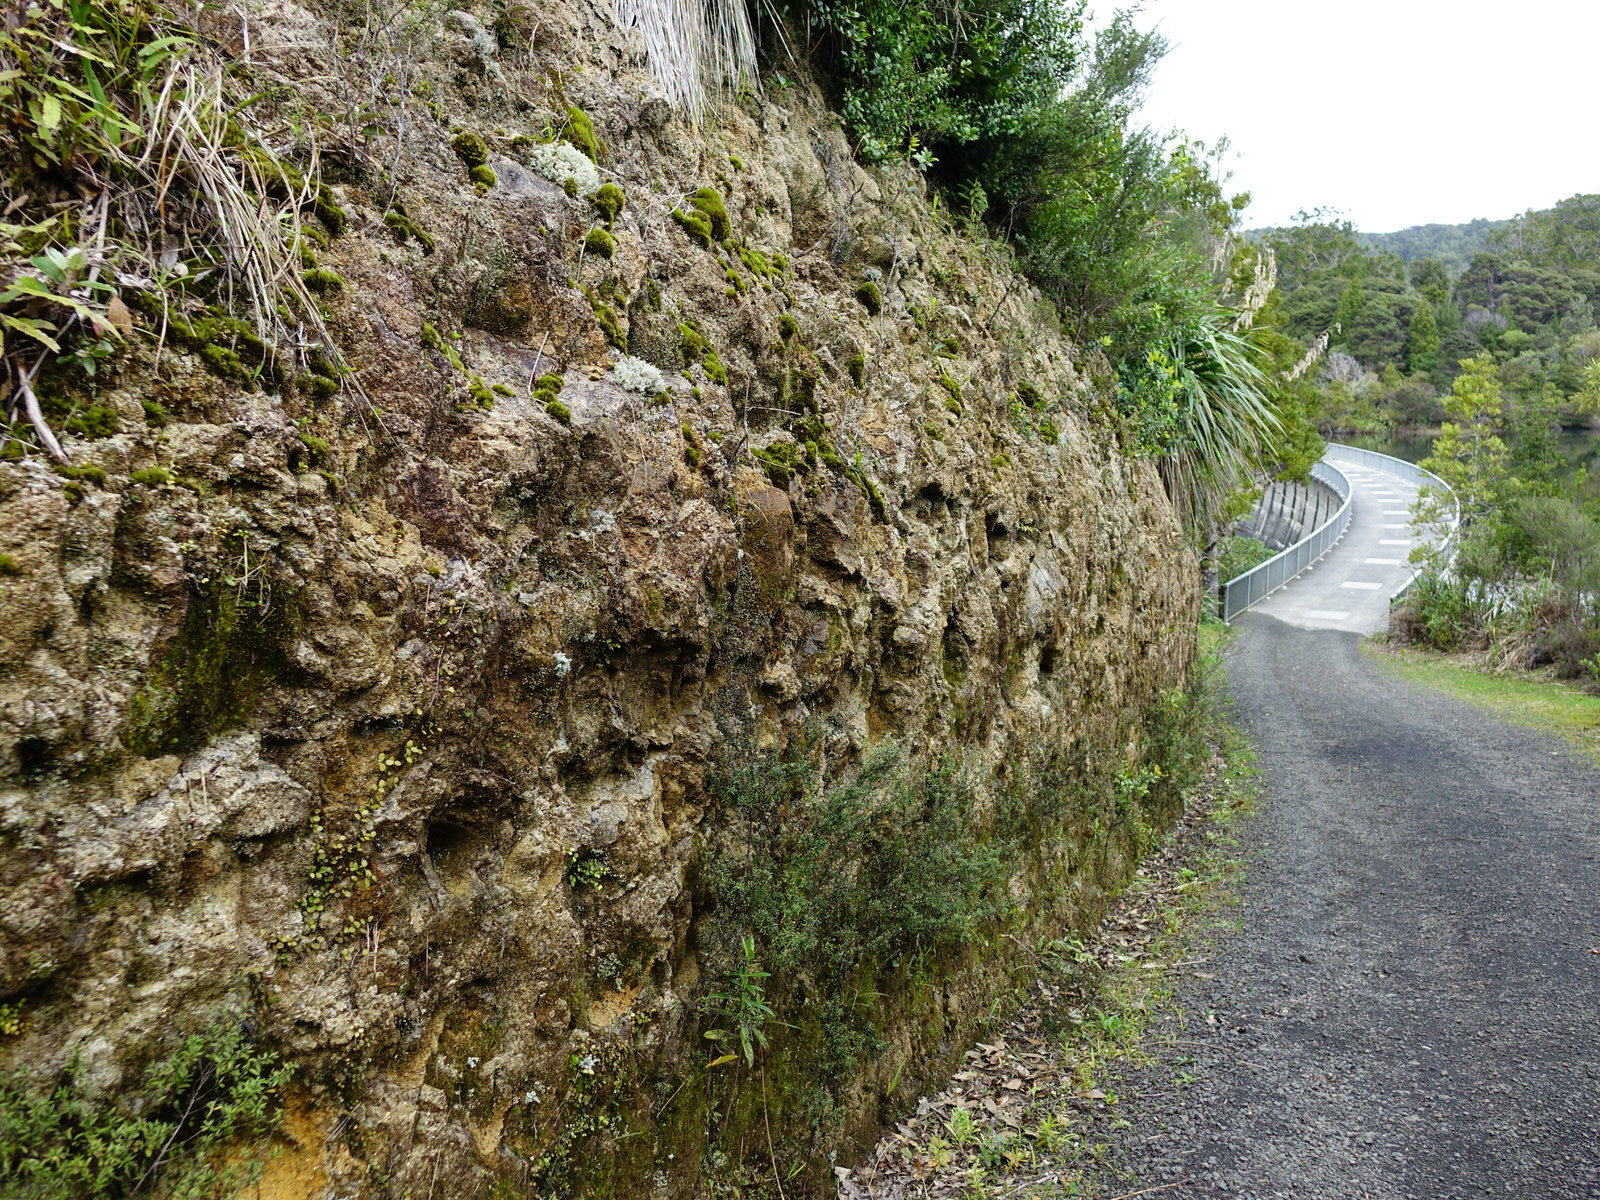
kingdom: Fungi
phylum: Ascomycota
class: Lecanoromycetes
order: Pertusariales
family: Icmadophilaceae
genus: Dibaeis
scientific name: Dibaeis arcuata
